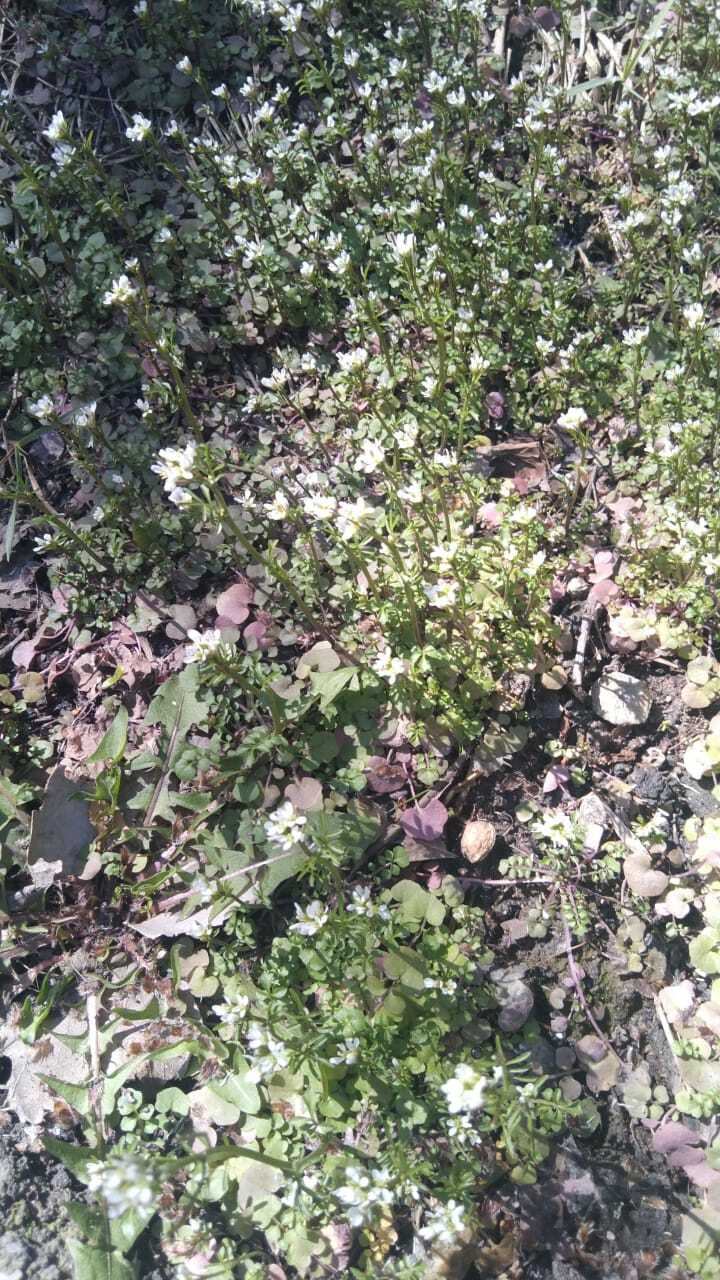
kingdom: Plantae
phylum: Tracheophyta
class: Magnoliopsida
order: Brassicales
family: Brassicaceae
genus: Cardamine
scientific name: Cardamine occulta
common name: Asian wavy bittercress
